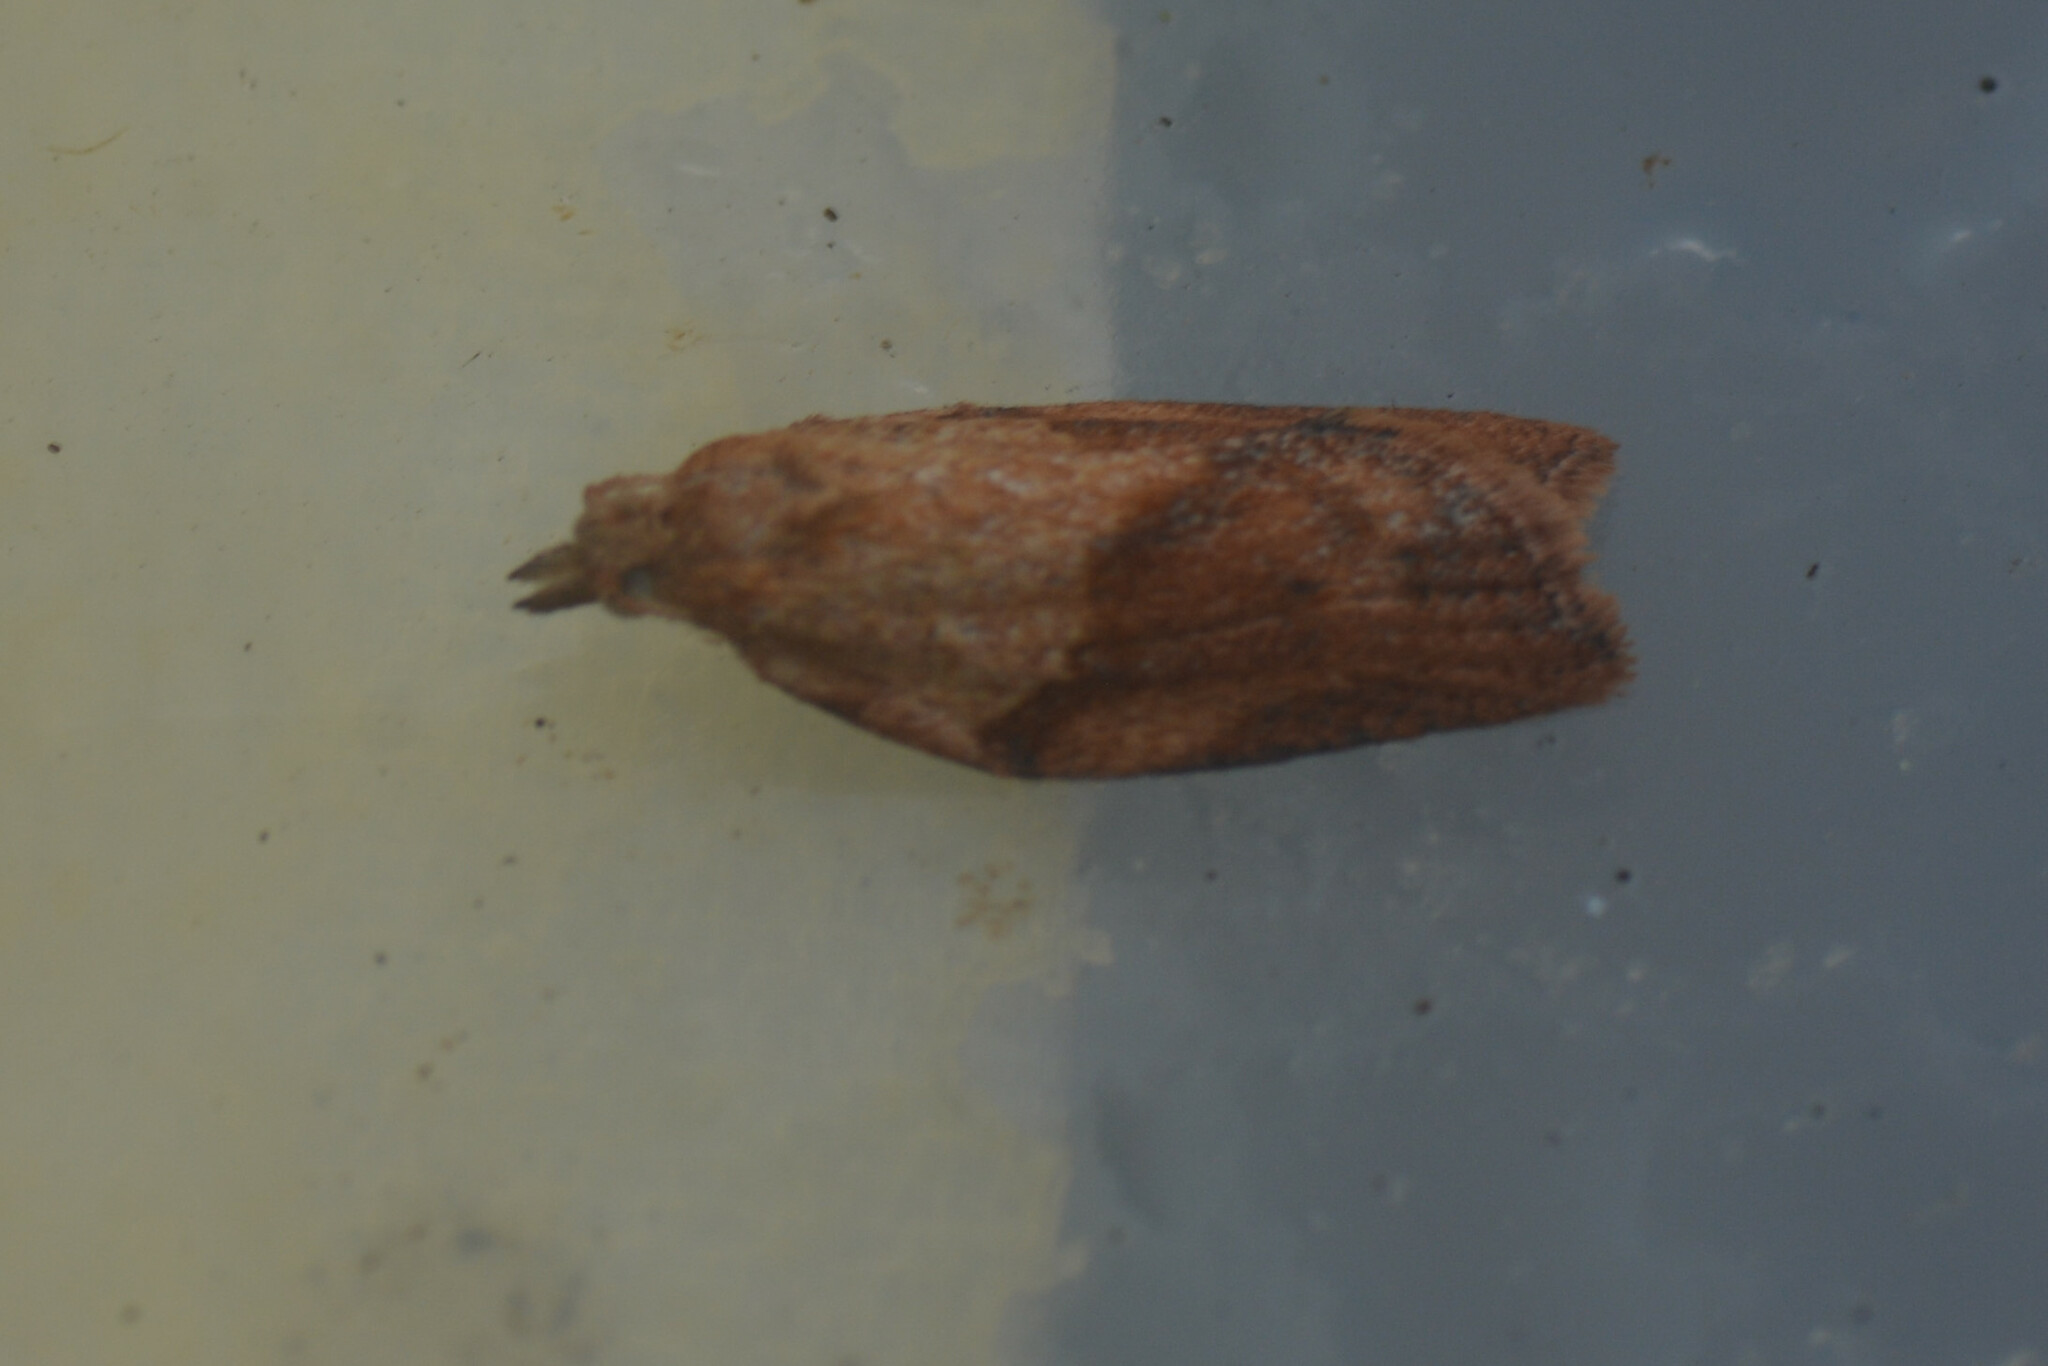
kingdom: Animalia
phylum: Arthropoda
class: Insecta
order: Lepidoptera
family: Tortricidae
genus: Epiphyas
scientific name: Epiphyas postvittana
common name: Light brown apple moth
